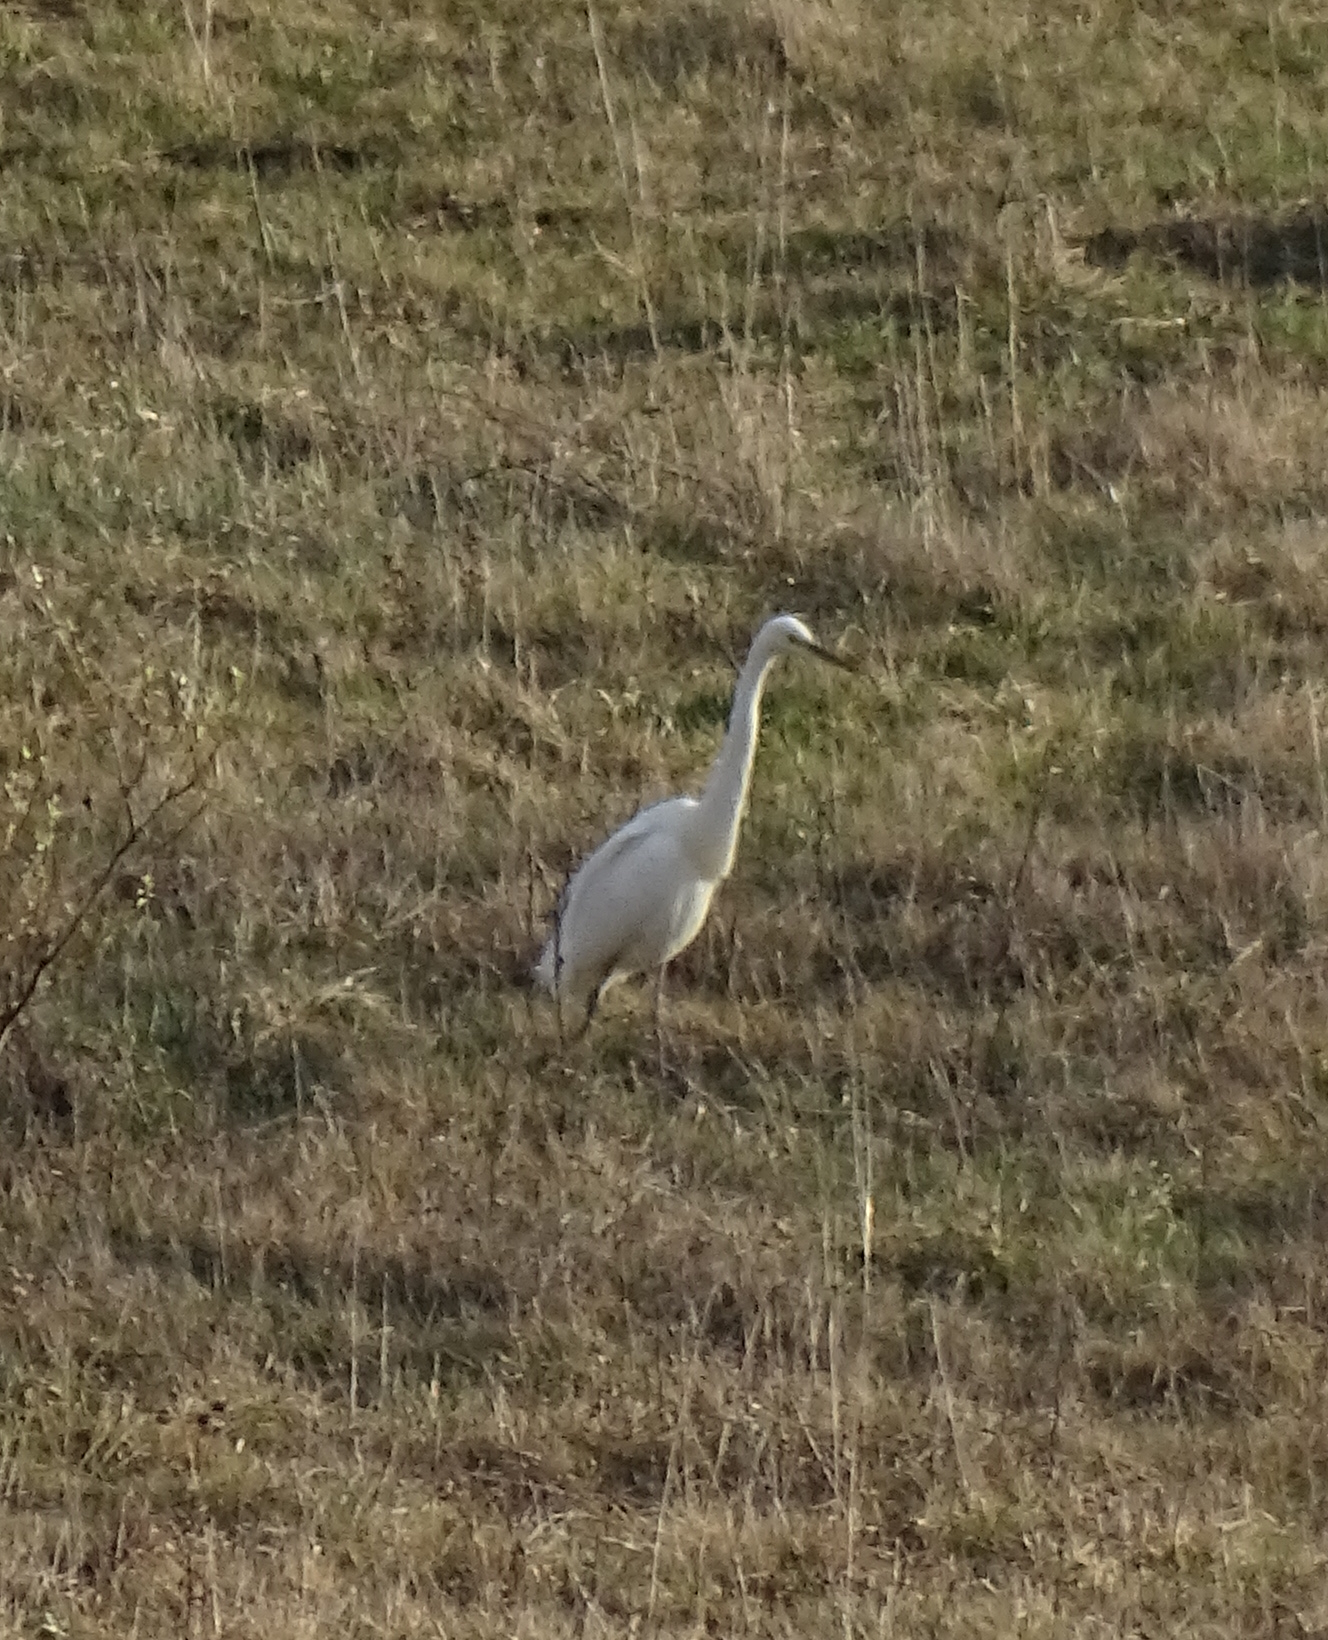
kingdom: Animalia
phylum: Chordata
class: Aves
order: Pelecaniformes
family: Ardeidae
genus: Ardea
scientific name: Ardea alba
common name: Great egret
